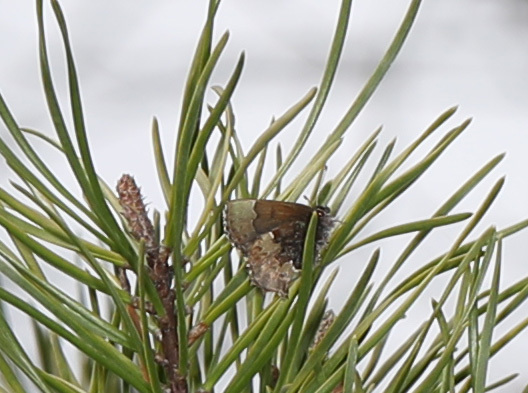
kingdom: Animalia
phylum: Arthropoda
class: Insecta
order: Lepidoptera
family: Lycaenidae
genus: Incisalia
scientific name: Incisalia henrici
